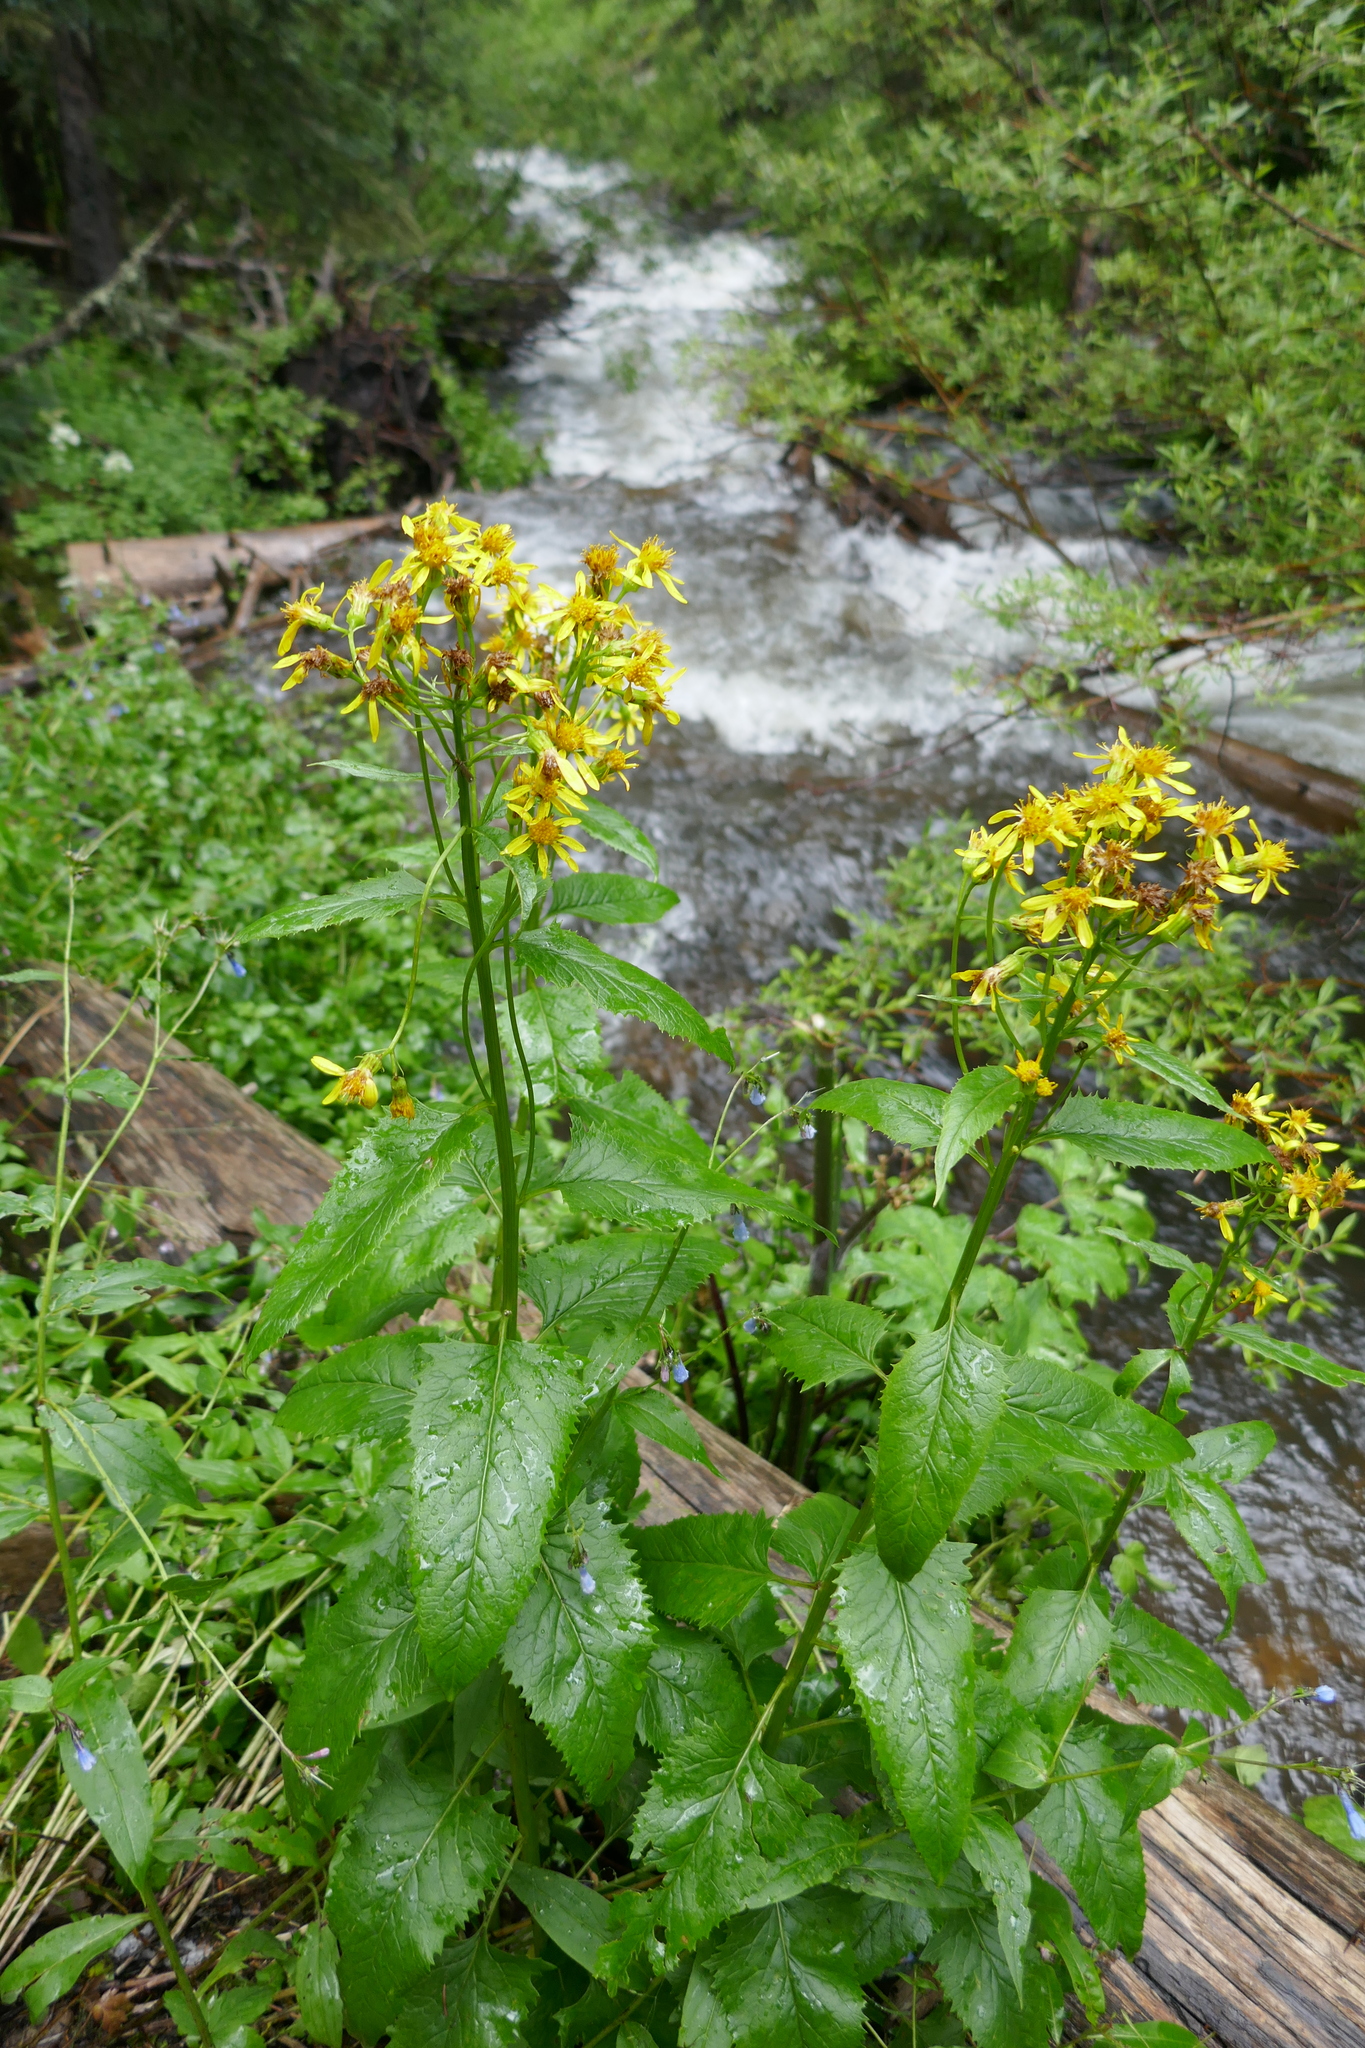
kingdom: Plantae
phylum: Tracheophyta
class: Magnoliopsida
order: Asterales
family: Asteraceae
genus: Senecio
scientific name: Senecio triangularis
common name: Arrowleaf butterweed
